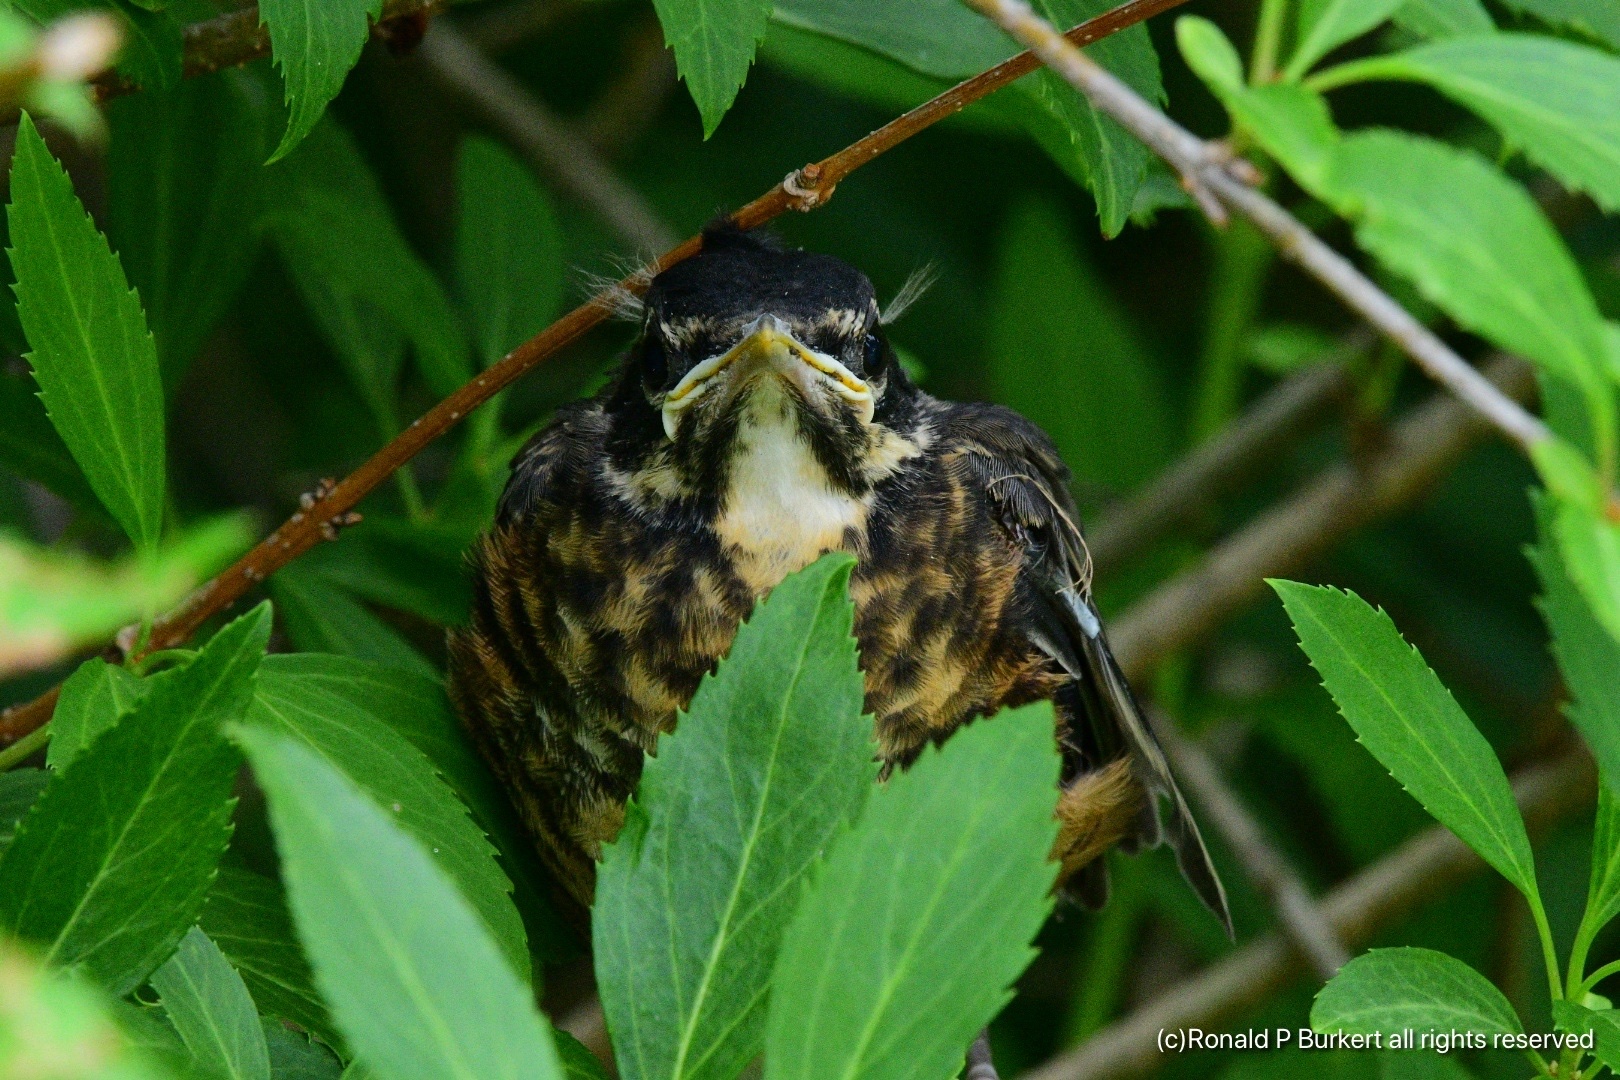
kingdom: Animalia
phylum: Chordata
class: Aves
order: Passeriformes
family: Turdidae
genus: Turdus
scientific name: Turdus migratorius
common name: American robin
